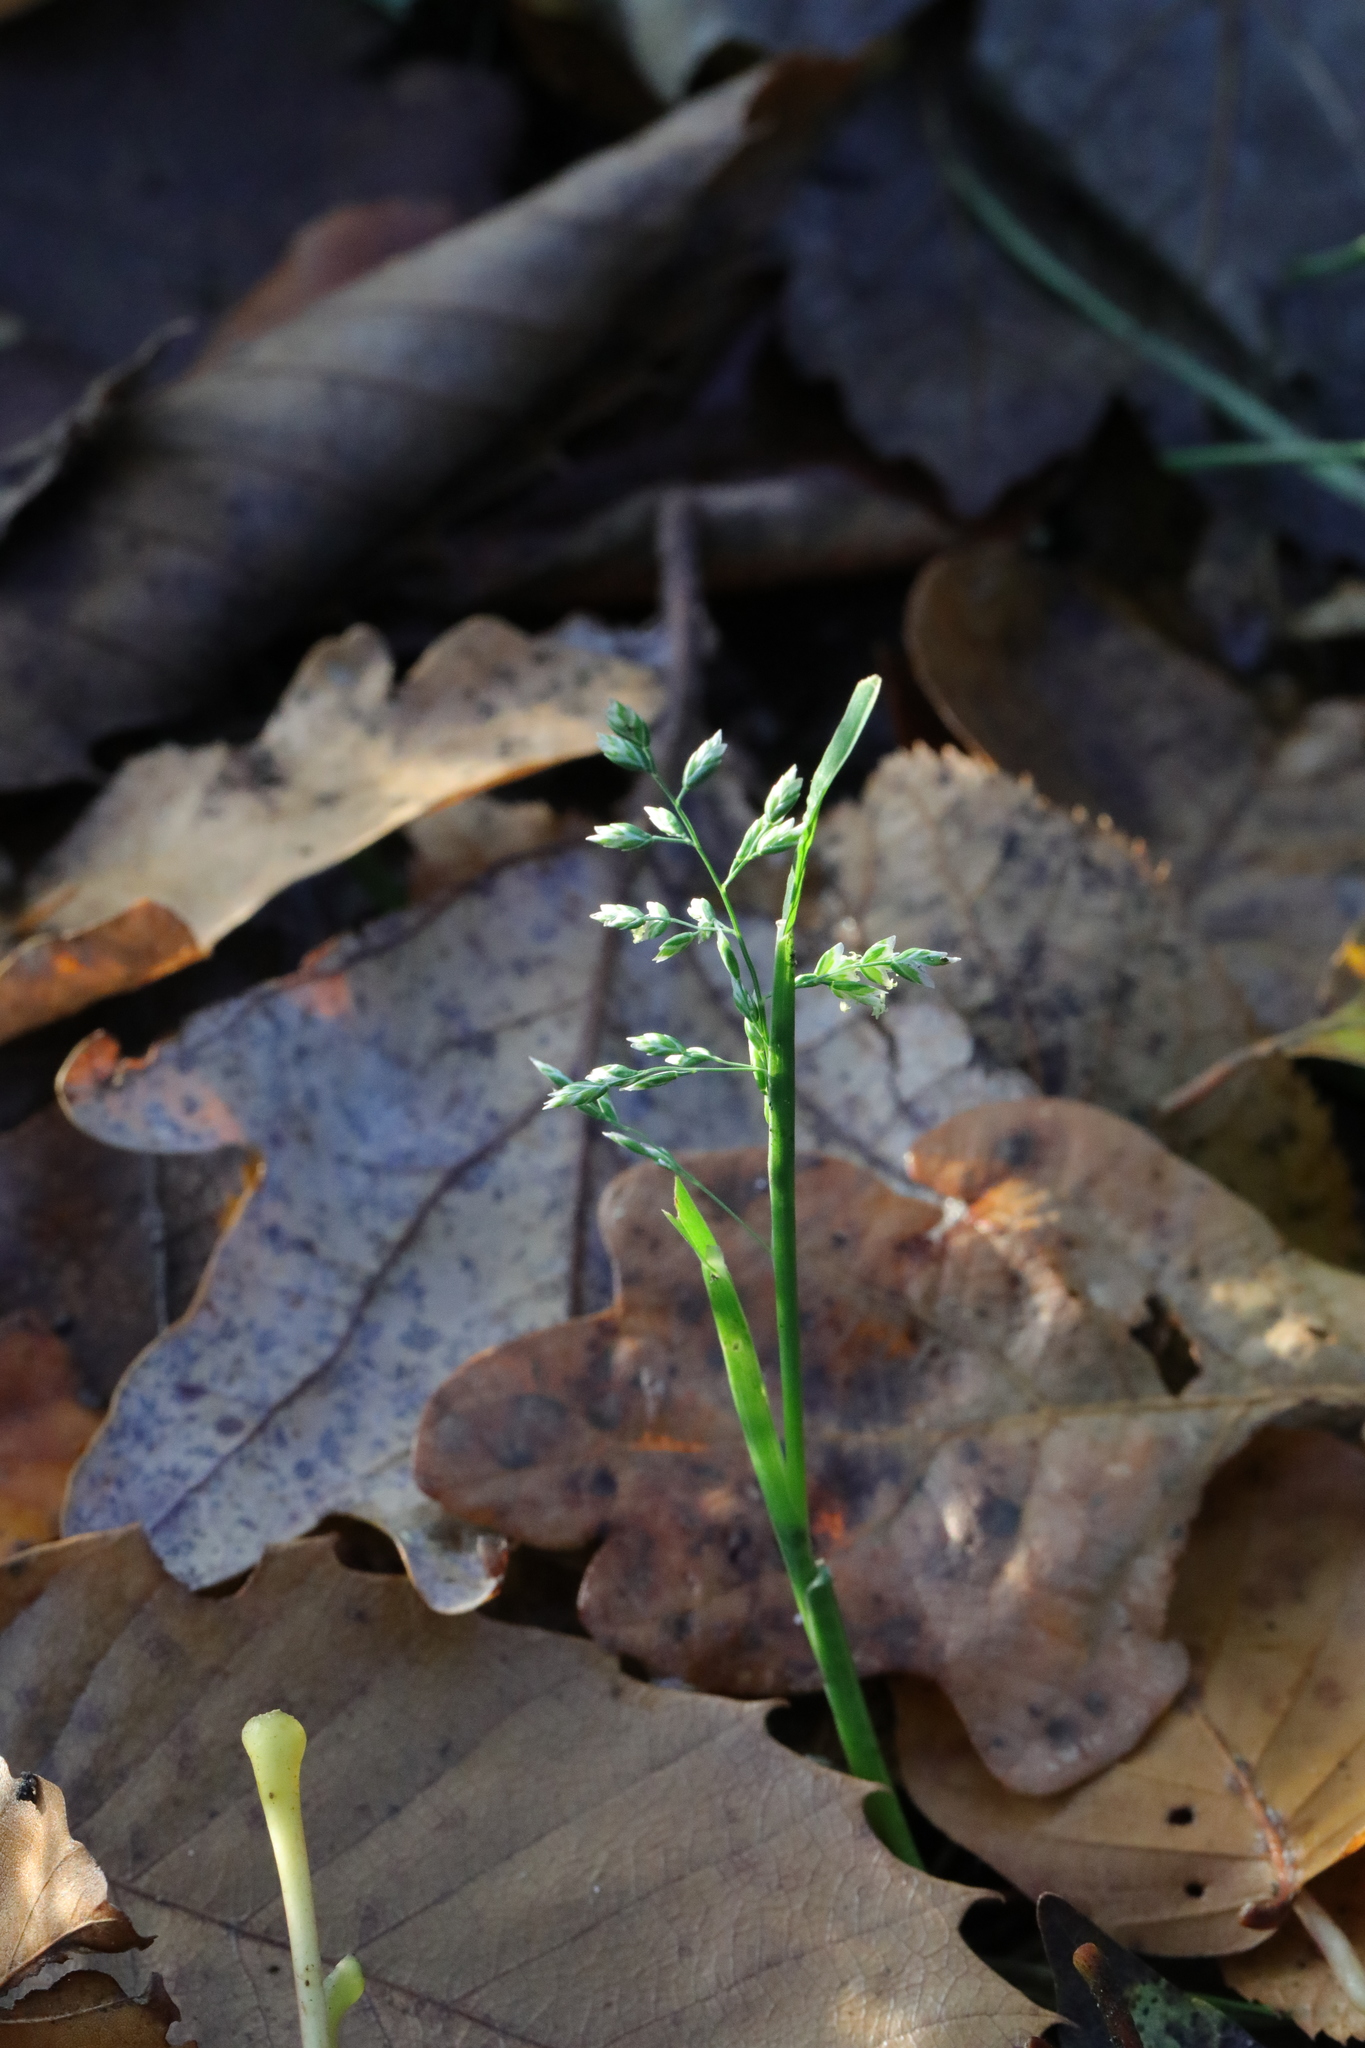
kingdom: Plantae
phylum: Tracheophyta
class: Liliopsida
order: Poales
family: Poaceae
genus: Poa
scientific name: Poa annua
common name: Annual bluegrass
